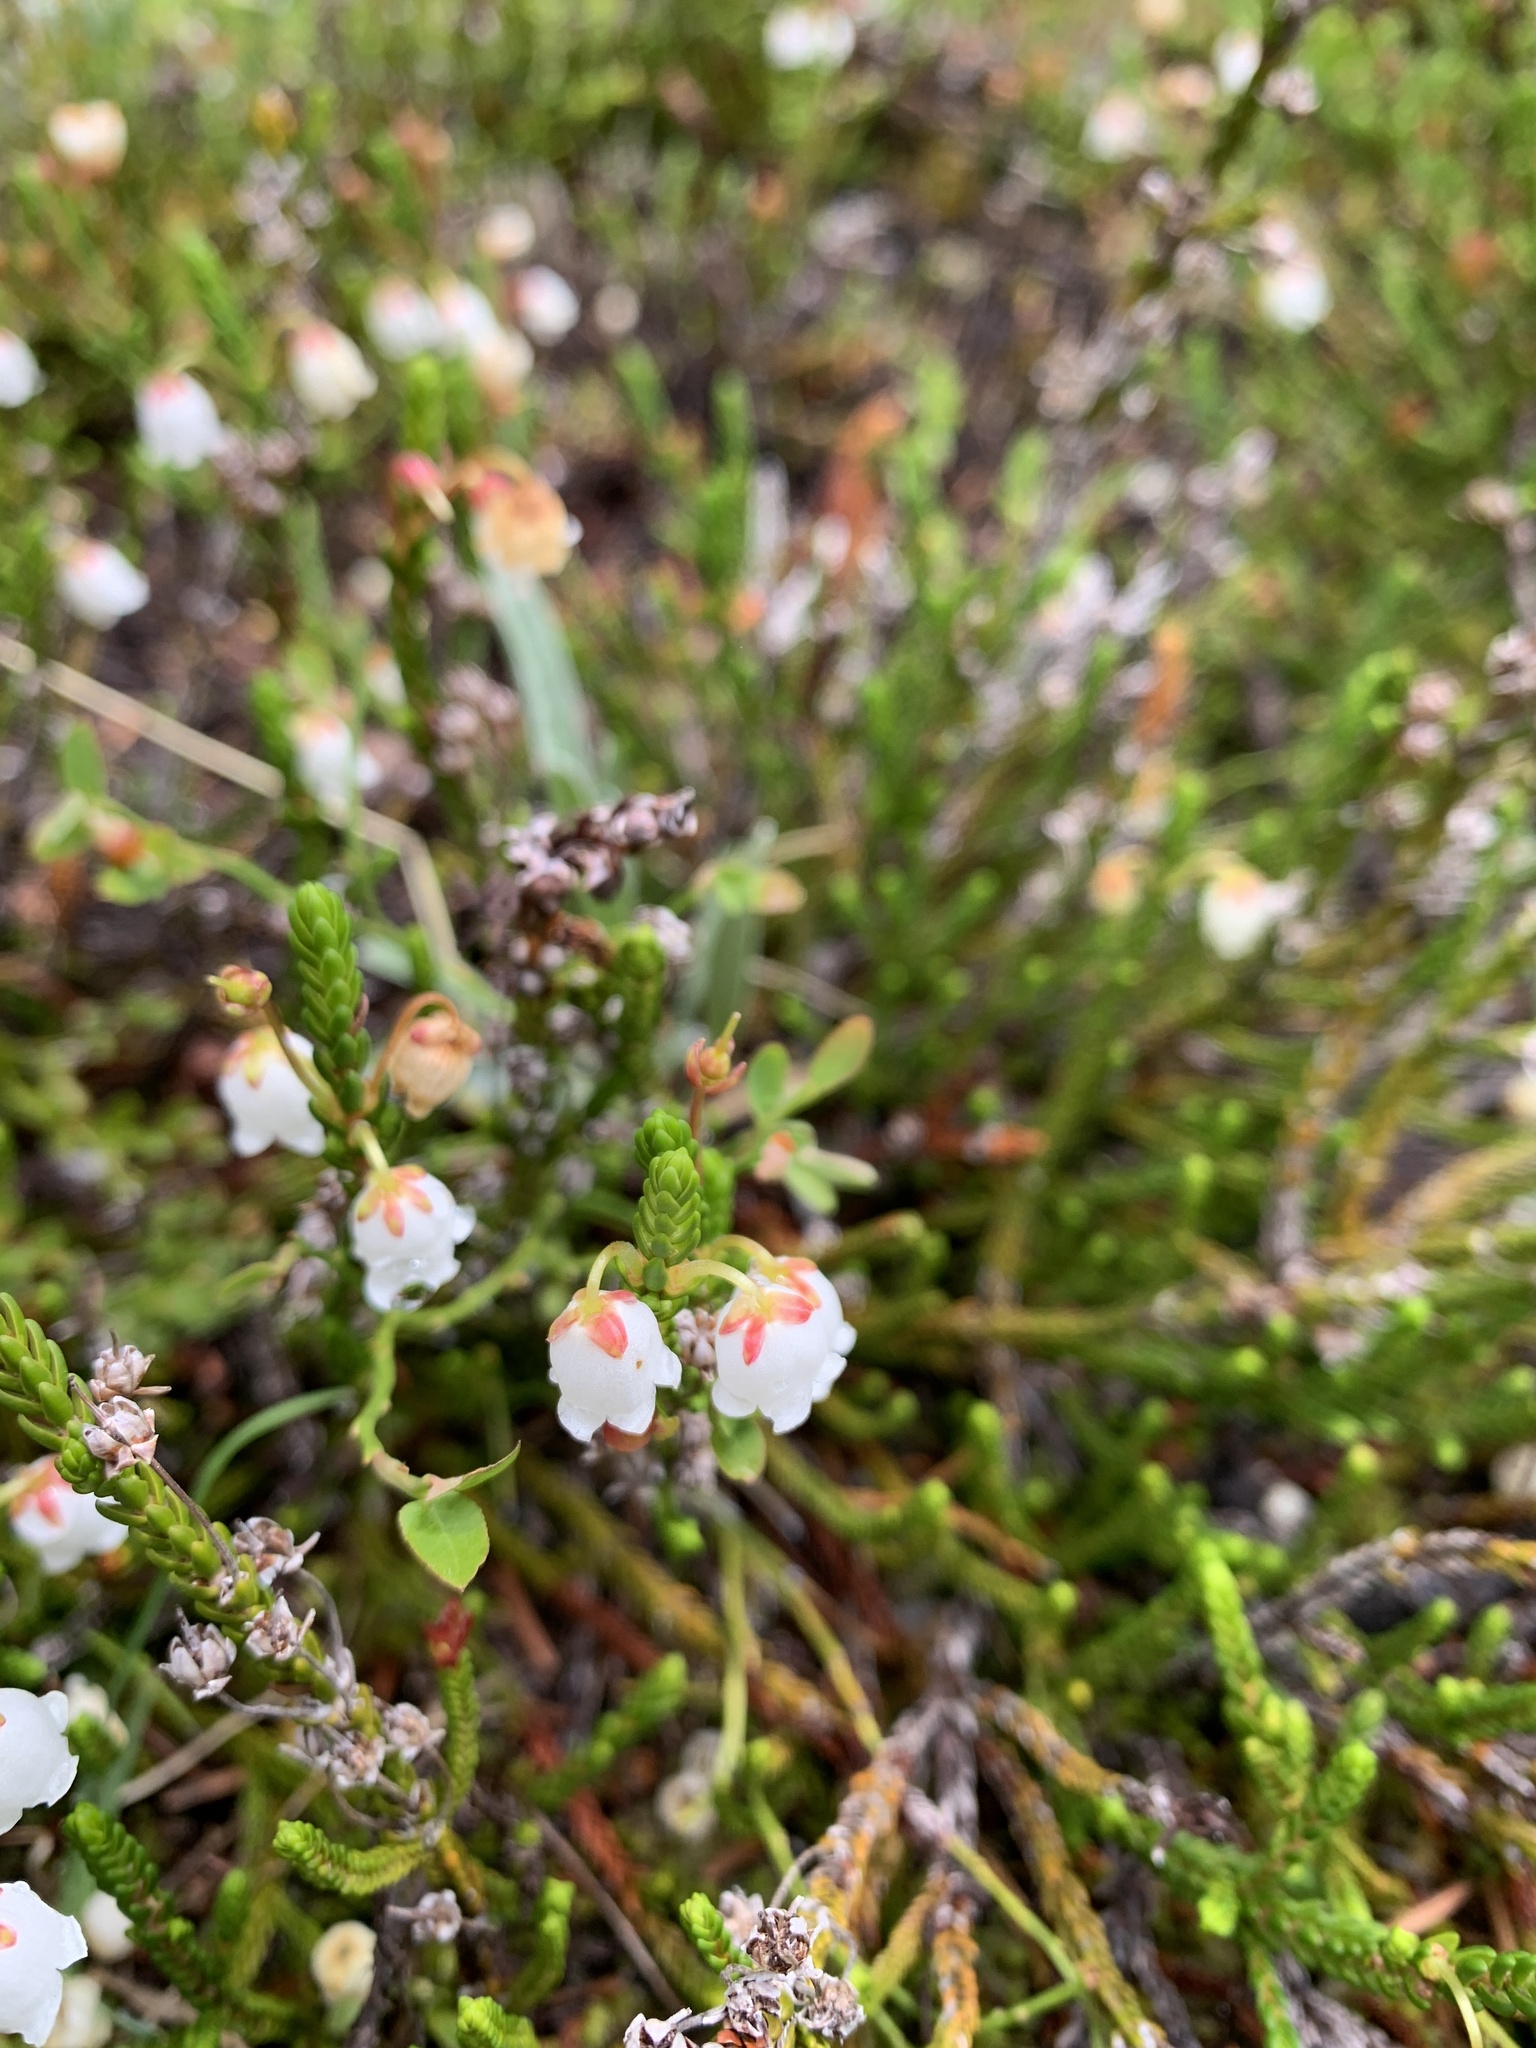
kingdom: Plantae
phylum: Tracheophyta
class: Magnoliopsida
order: Ericales
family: Ericaceae
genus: Cassiope
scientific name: Cassiope mertensiana
